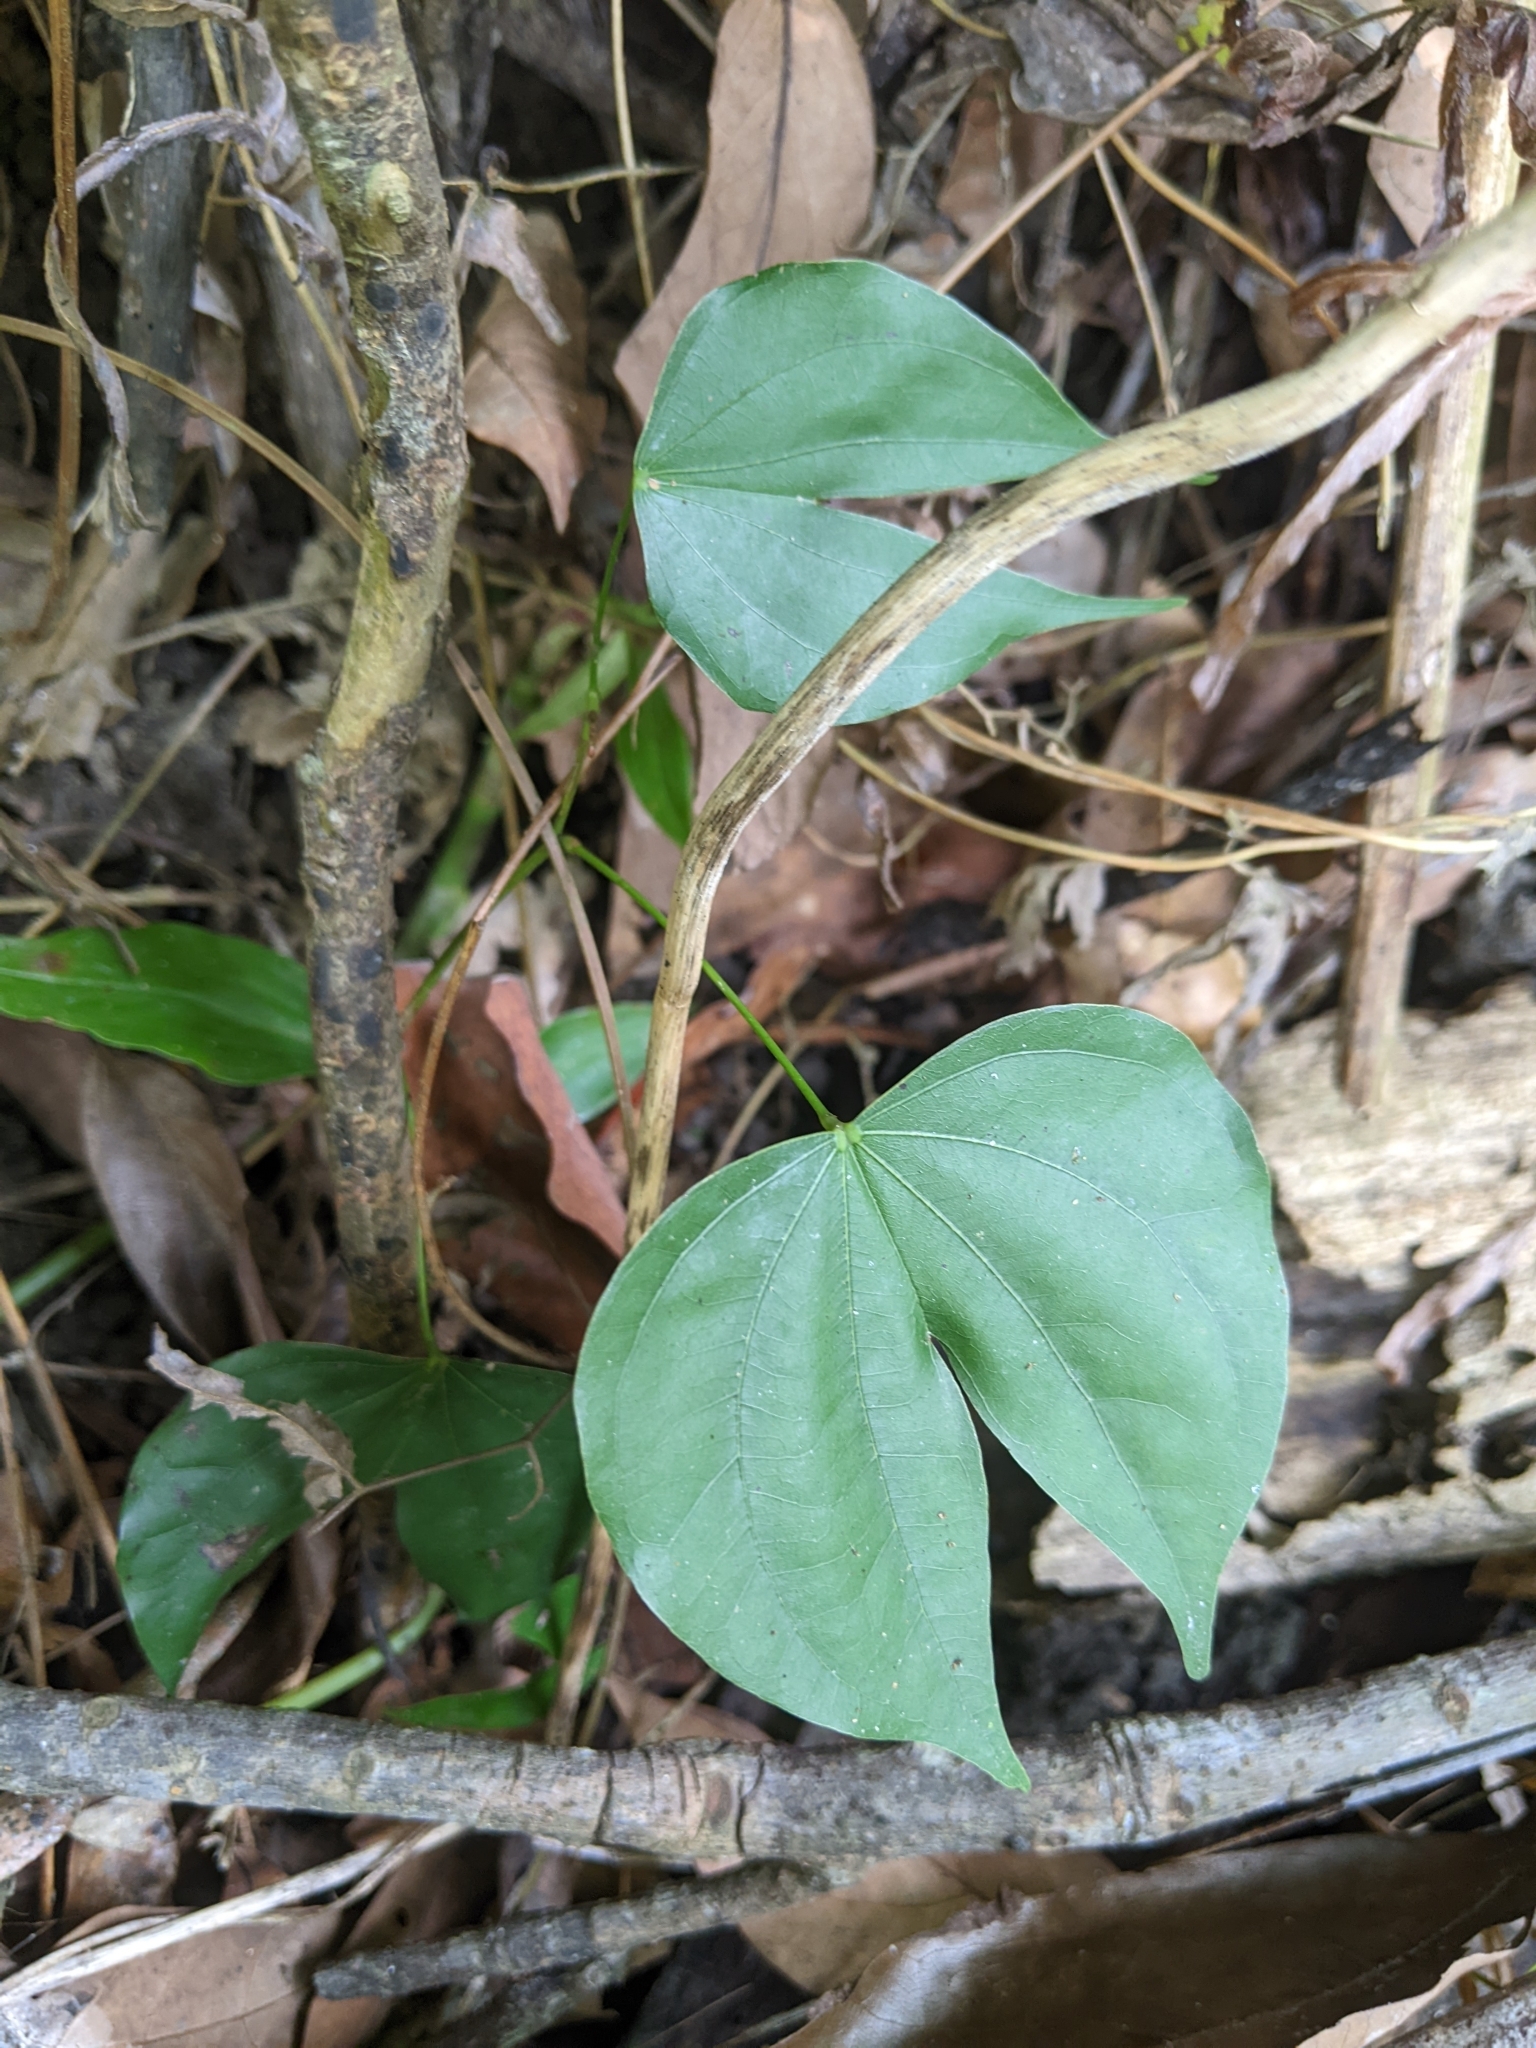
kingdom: Plantae
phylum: Tracheophyta
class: Magnoliopsida
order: Fabales
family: Fabaceae
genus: Phanera
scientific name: Phanera championii
